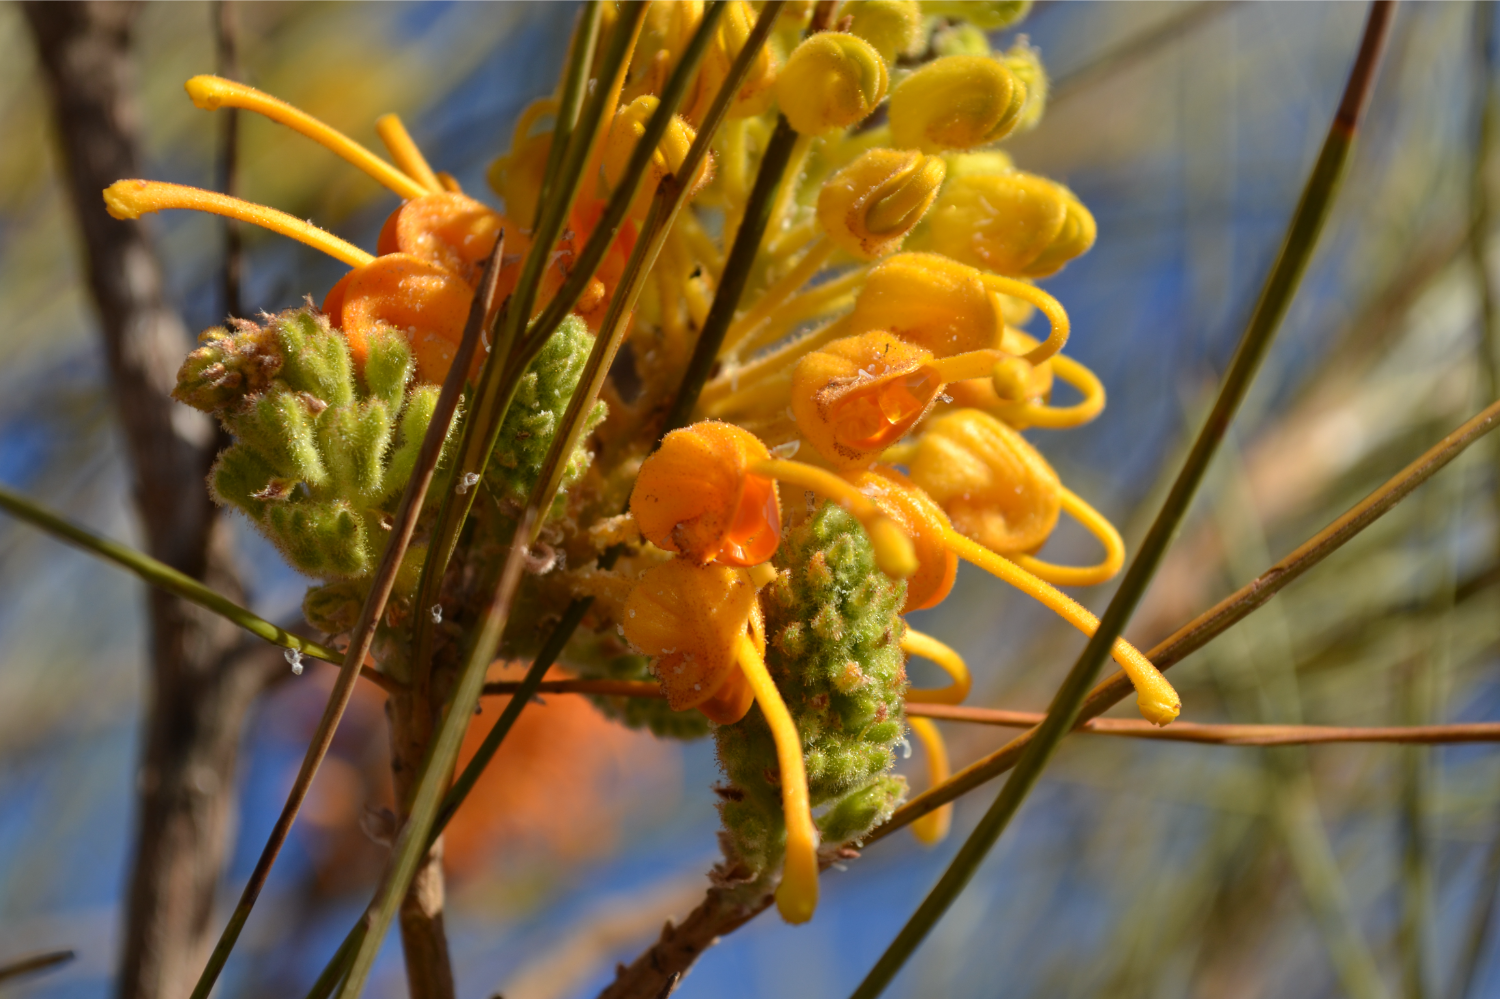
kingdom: Plantae
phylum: Tracheophyta
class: Magnoliopsida
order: Proteales
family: Proteaceae
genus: Grevillea
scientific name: Grevillea juncifolia
